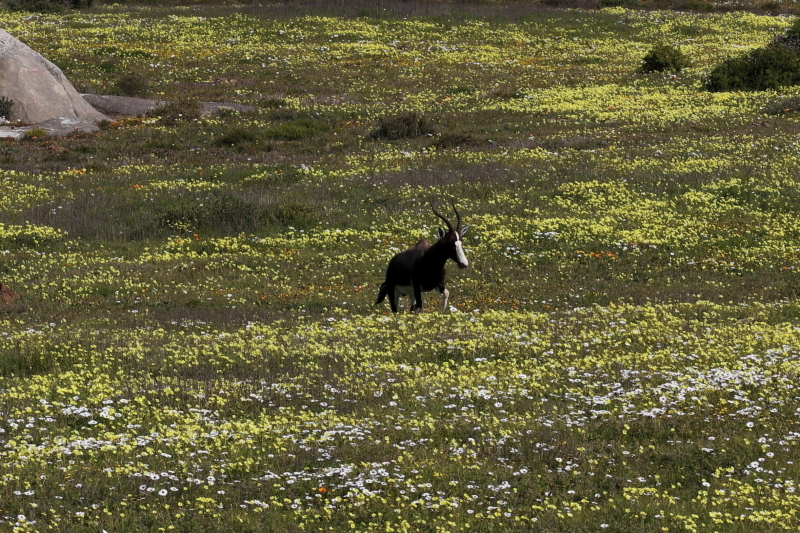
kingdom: Animalia
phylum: Chordata
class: Mammalia
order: Artiodactyla
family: Bovidae
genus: Damaliscus
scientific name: Damaliscus pygargus
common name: Bontebok
